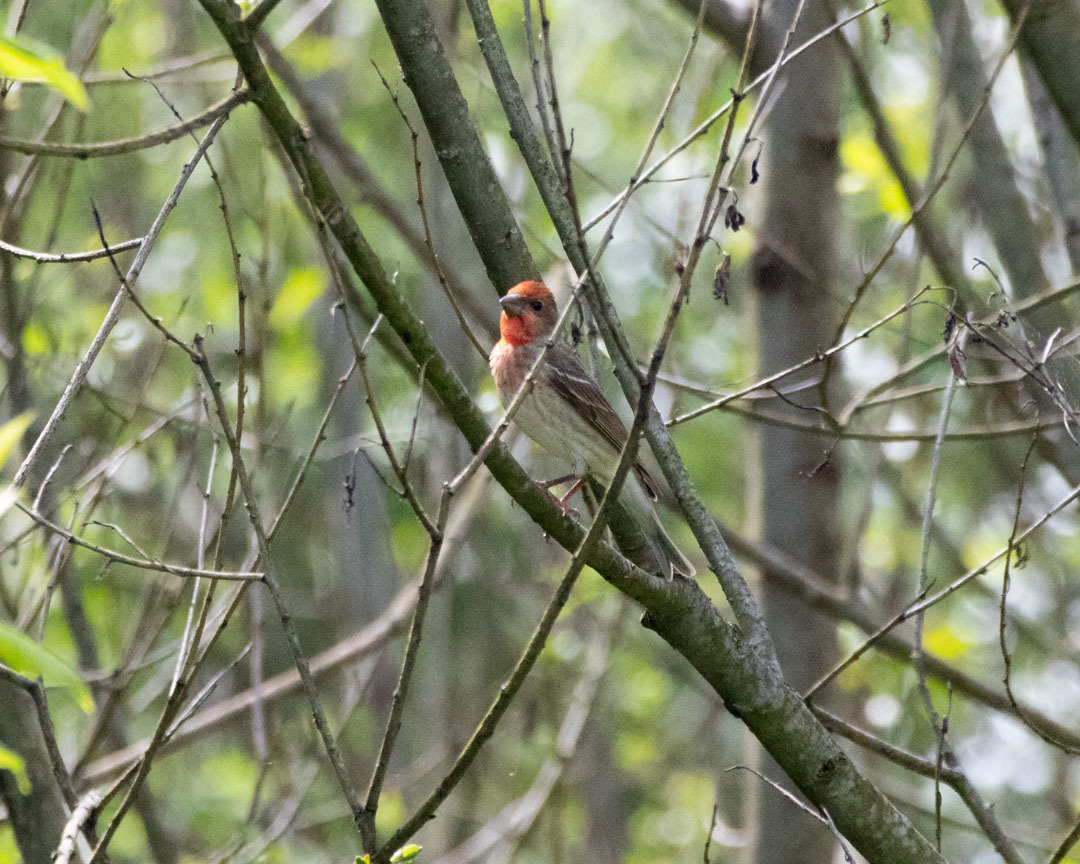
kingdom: Animalia
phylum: Chordata
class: Aves
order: Passeriformes
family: Fringillidae
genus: Carpodacus
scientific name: Carpodacus erythrinus
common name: Common rosefinch
